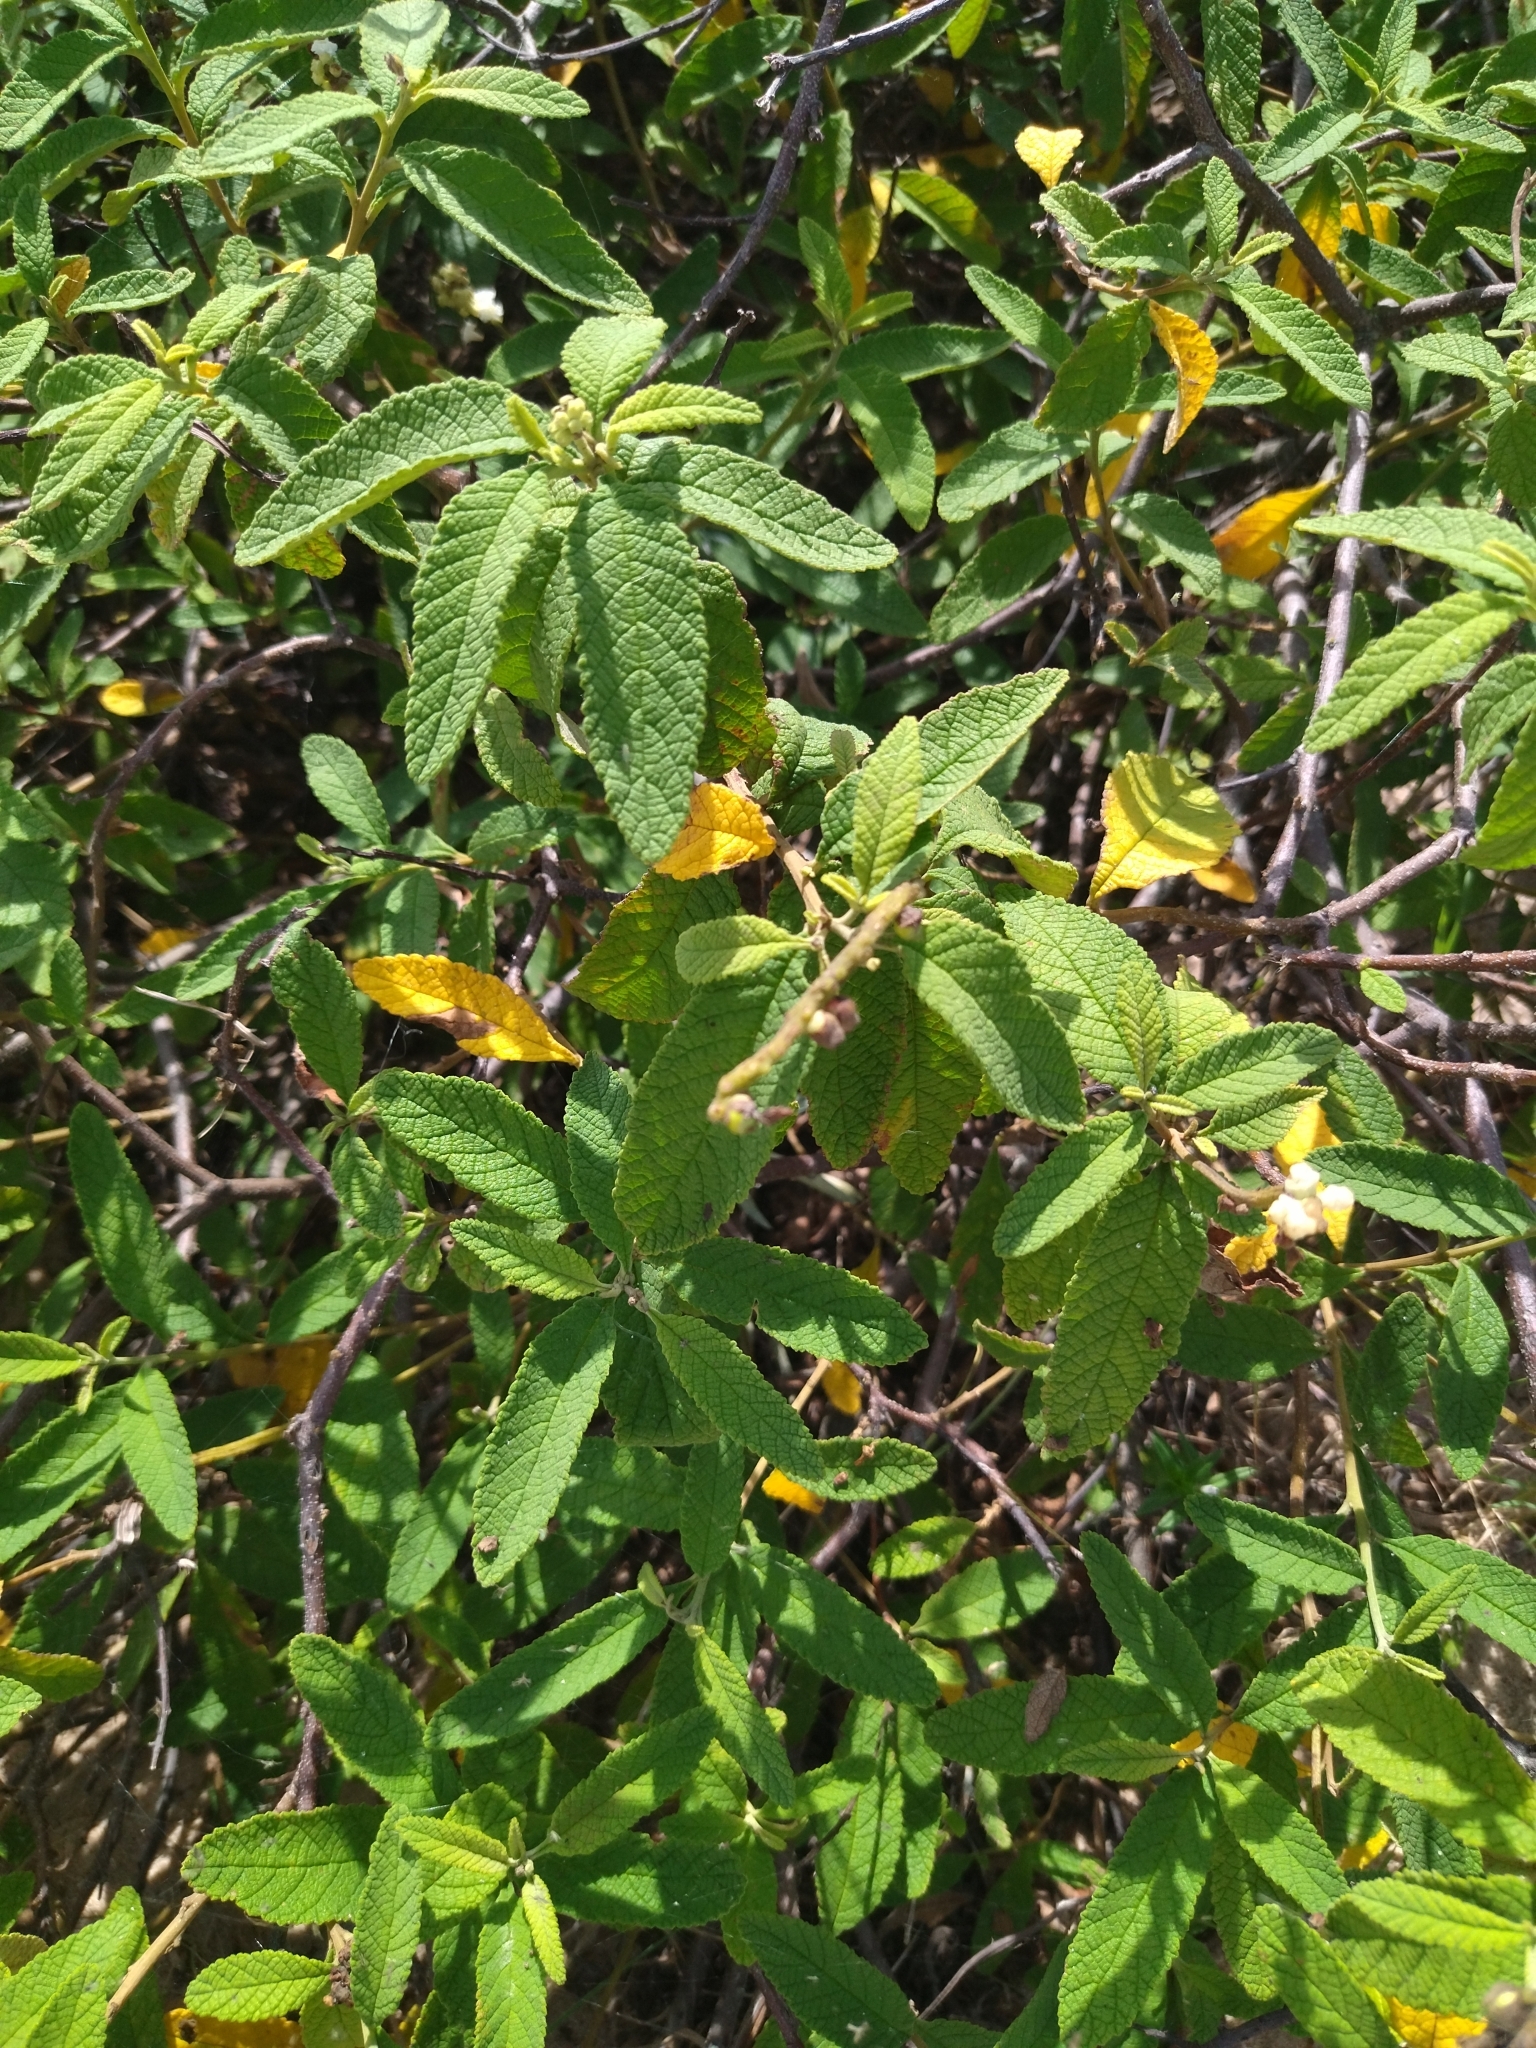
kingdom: Plantae
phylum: Tracheophyta
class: Magnoliopsida
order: Boraginales
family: Cordiaceae
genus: Varronia
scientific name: Varronia curassavica
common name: Black sage
